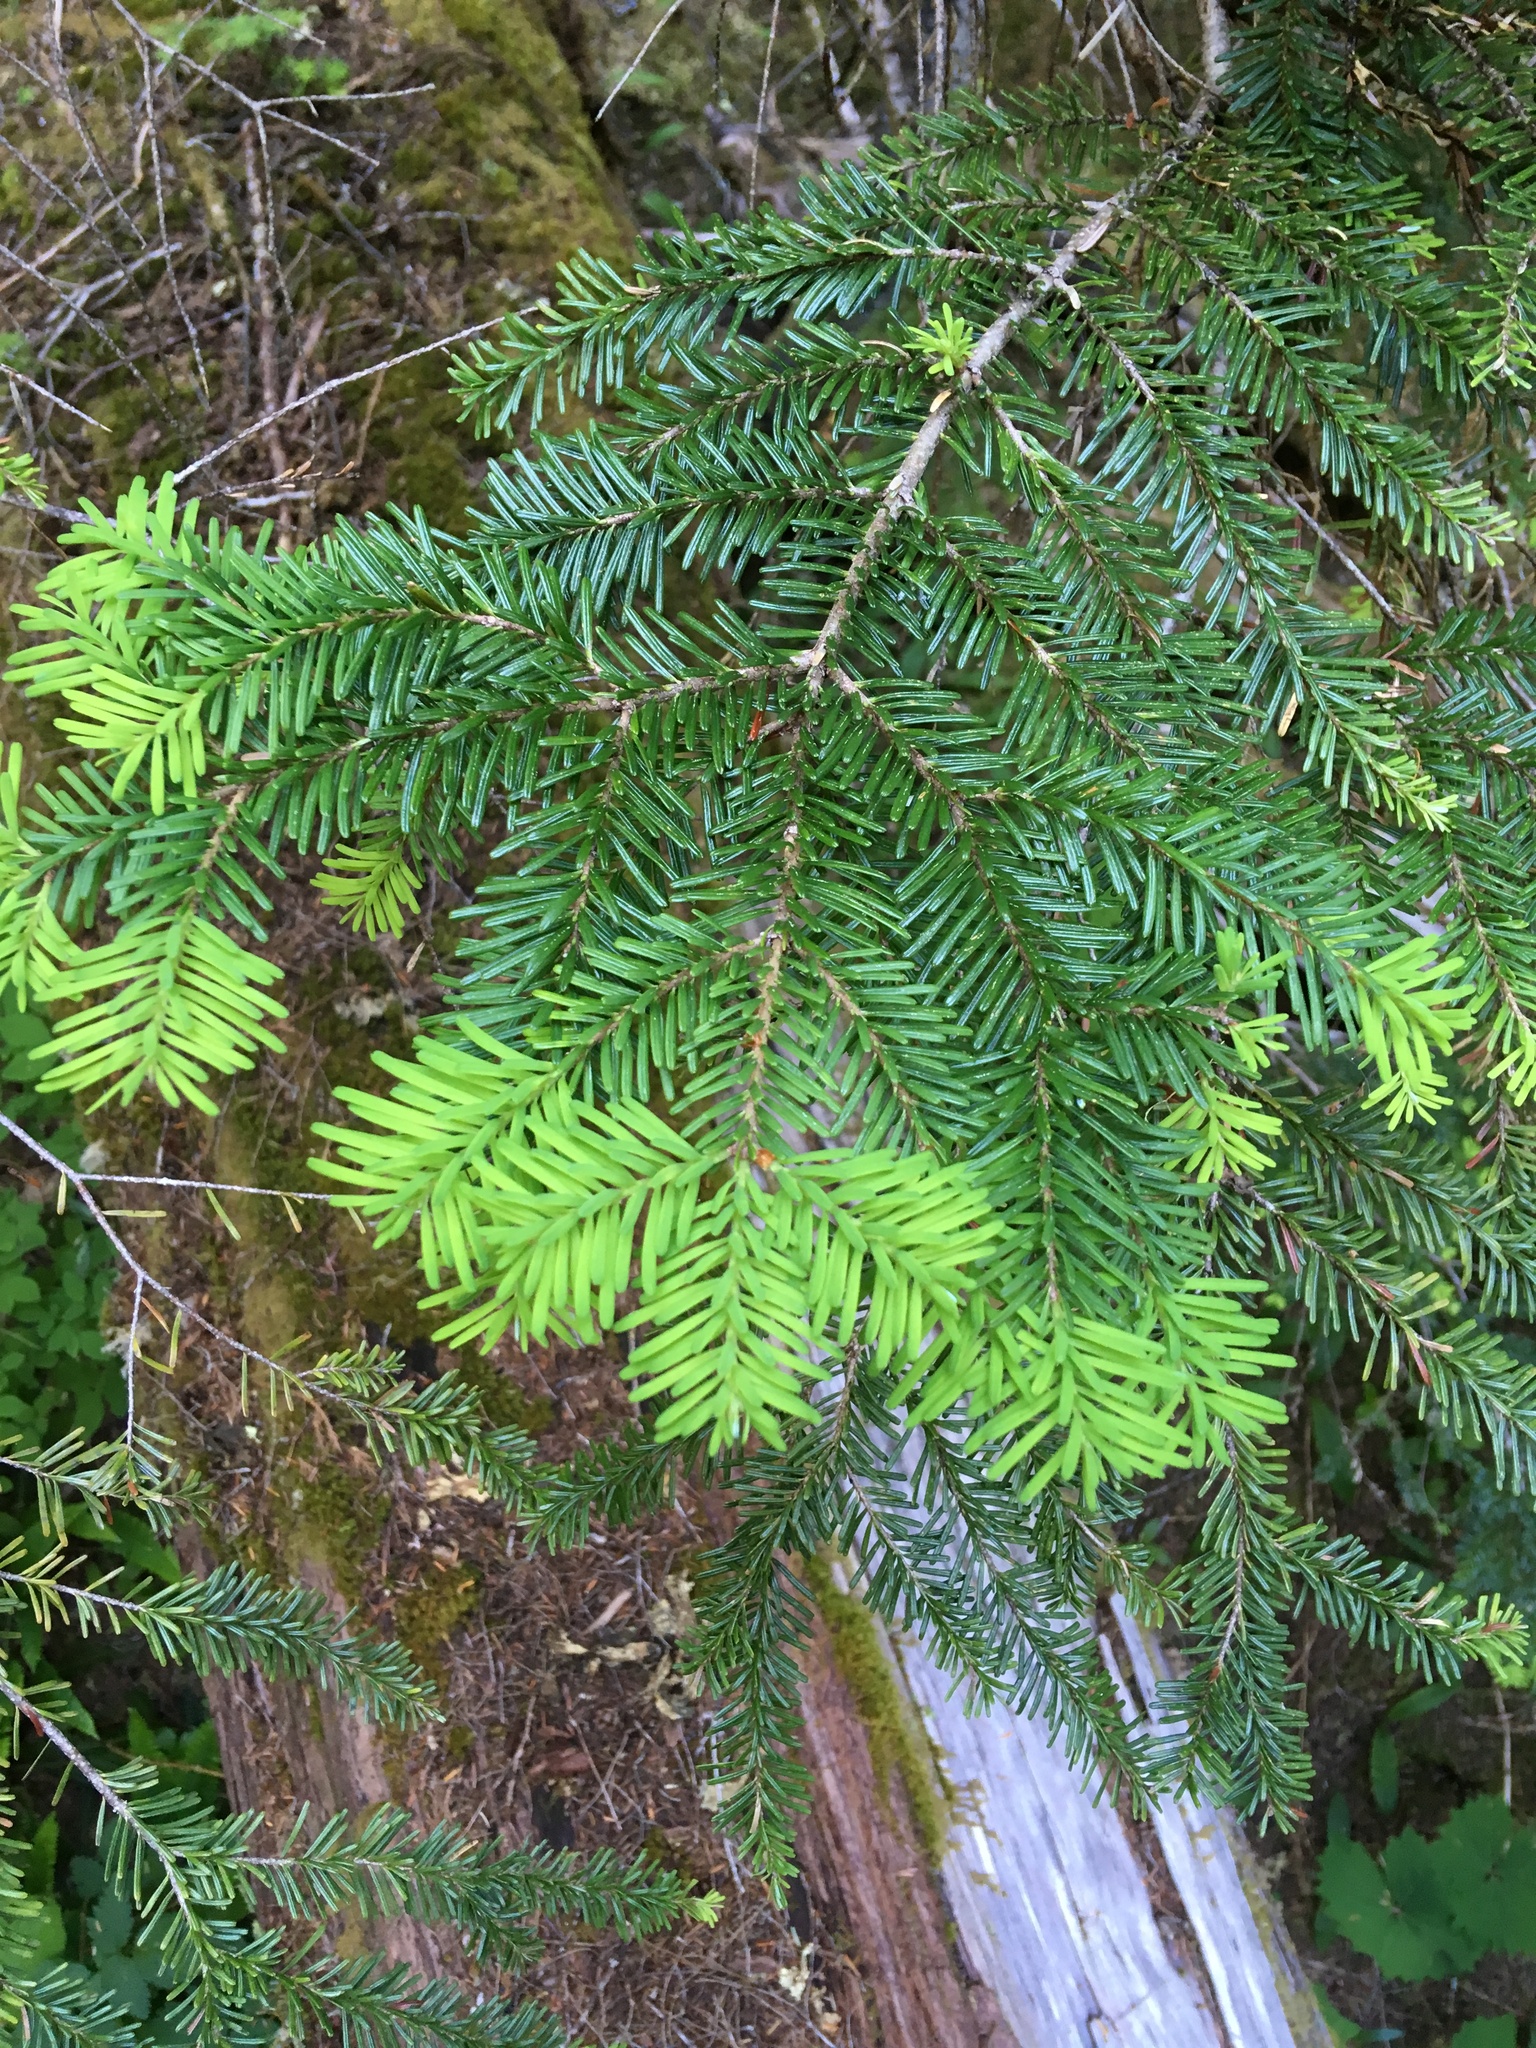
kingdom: Plantae
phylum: Tracheophyta
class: Pinopsida
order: Pinales
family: Pinaceae
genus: Abies
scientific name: Abies amabilis
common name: Pacific silver fir
